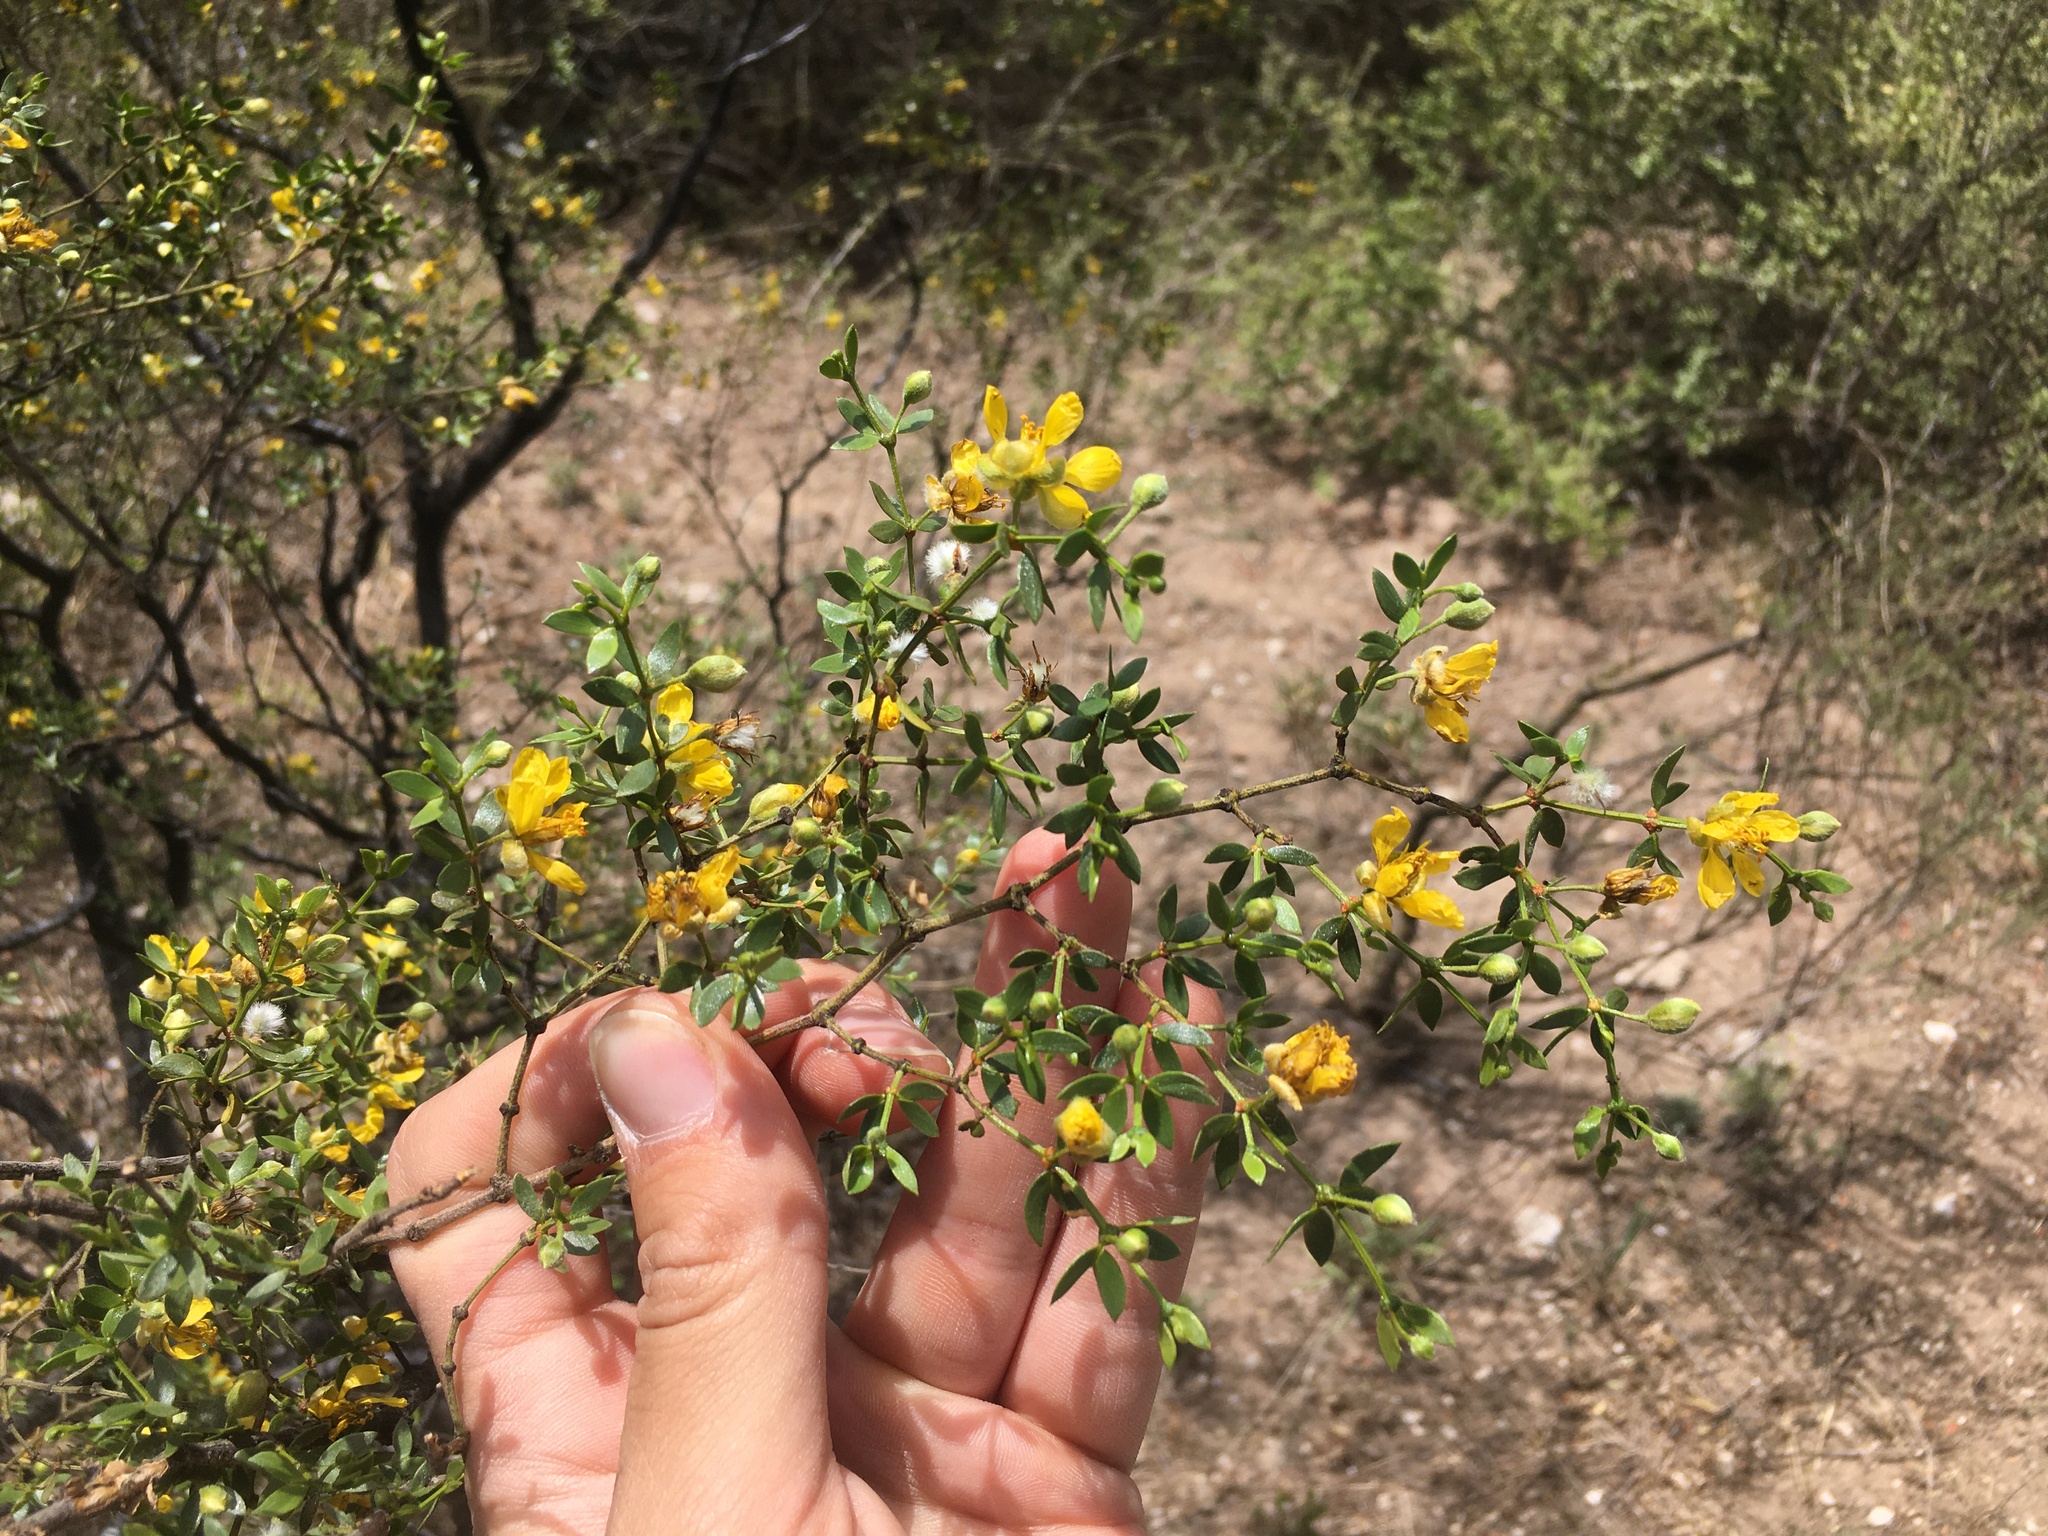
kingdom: Plantae
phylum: Tracheophyta
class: Magnoliopsida
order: Zygophyllales
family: Zygophyllaceae
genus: Larrea
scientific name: Larrea divaricata
